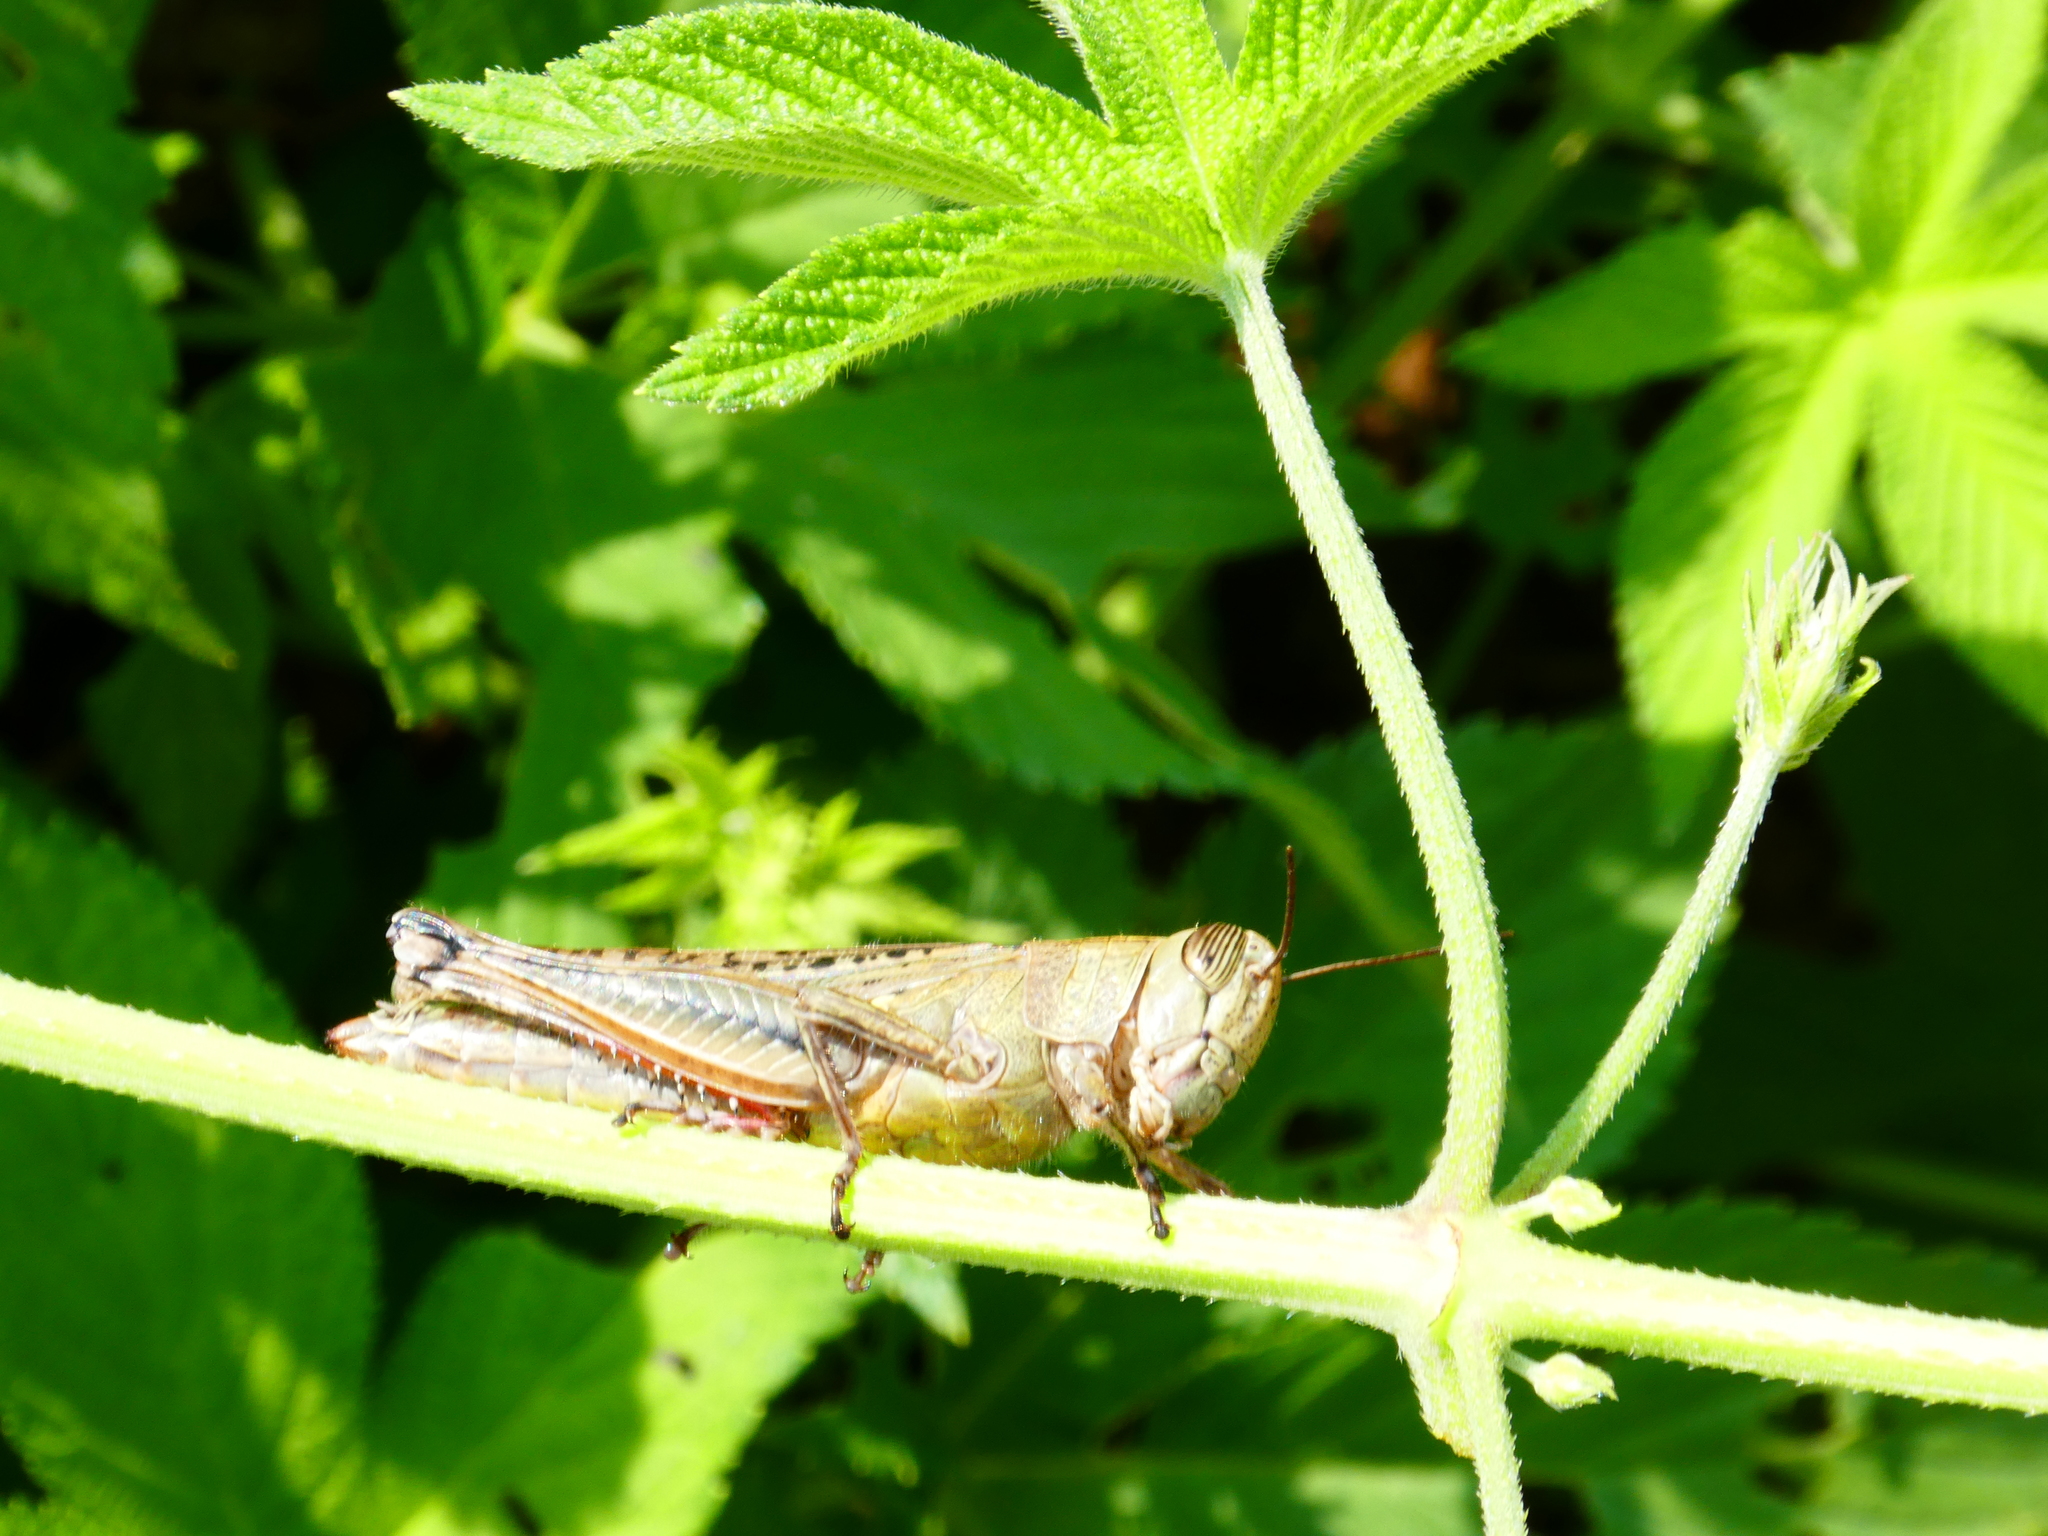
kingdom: Animalia
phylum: Arthropoda
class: Insecta
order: Orthoptera
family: Acrididae
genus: Shirakiacris
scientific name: Shirakiacris shirakii
